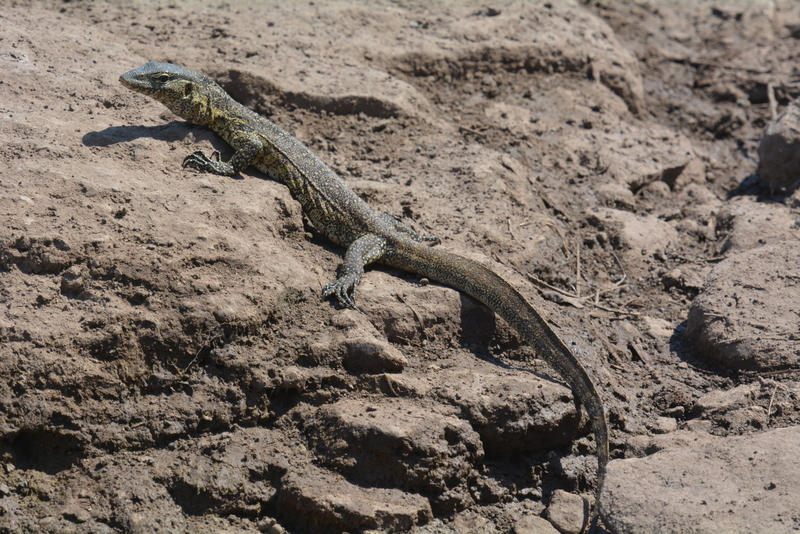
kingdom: Animalia
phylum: Chordata
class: Squamata
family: Varanidae
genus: Varanus
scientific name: Varanus niloticus
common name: Nile monitor
